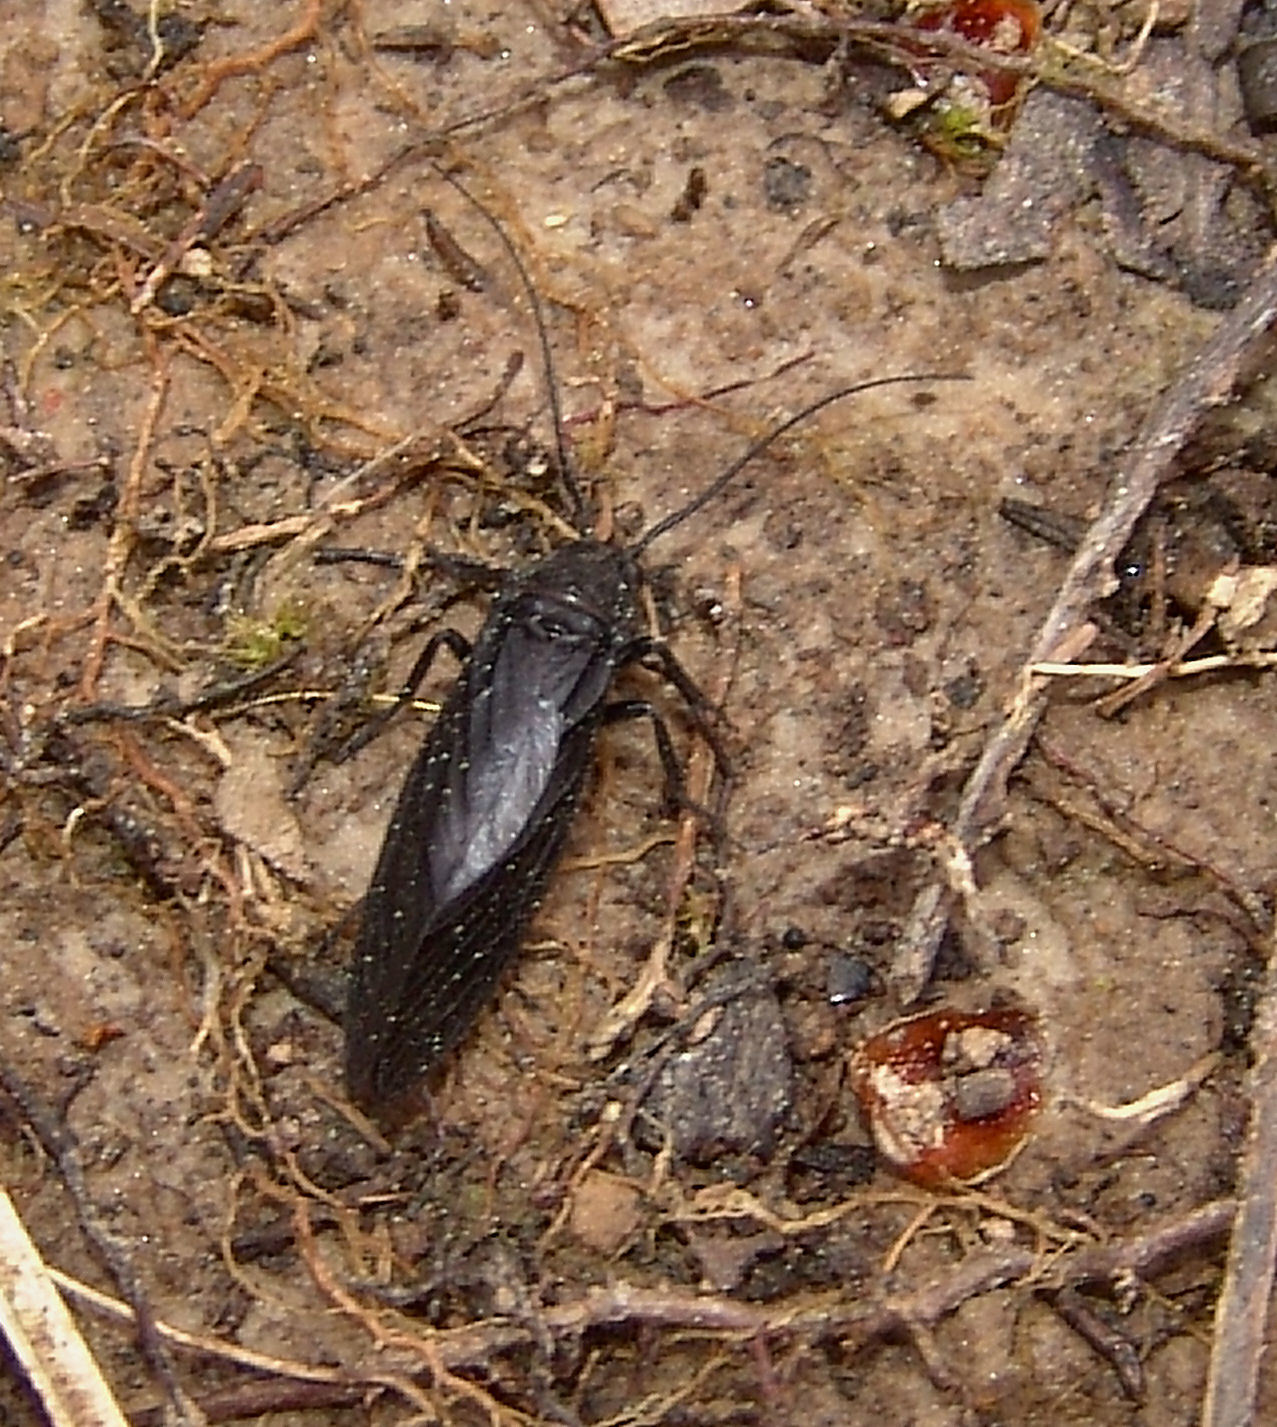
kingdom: Animalia
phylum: Arthropoda
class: Insecta
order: Megaloptera
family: Sialidae
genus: Sialis
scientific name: Sialis
